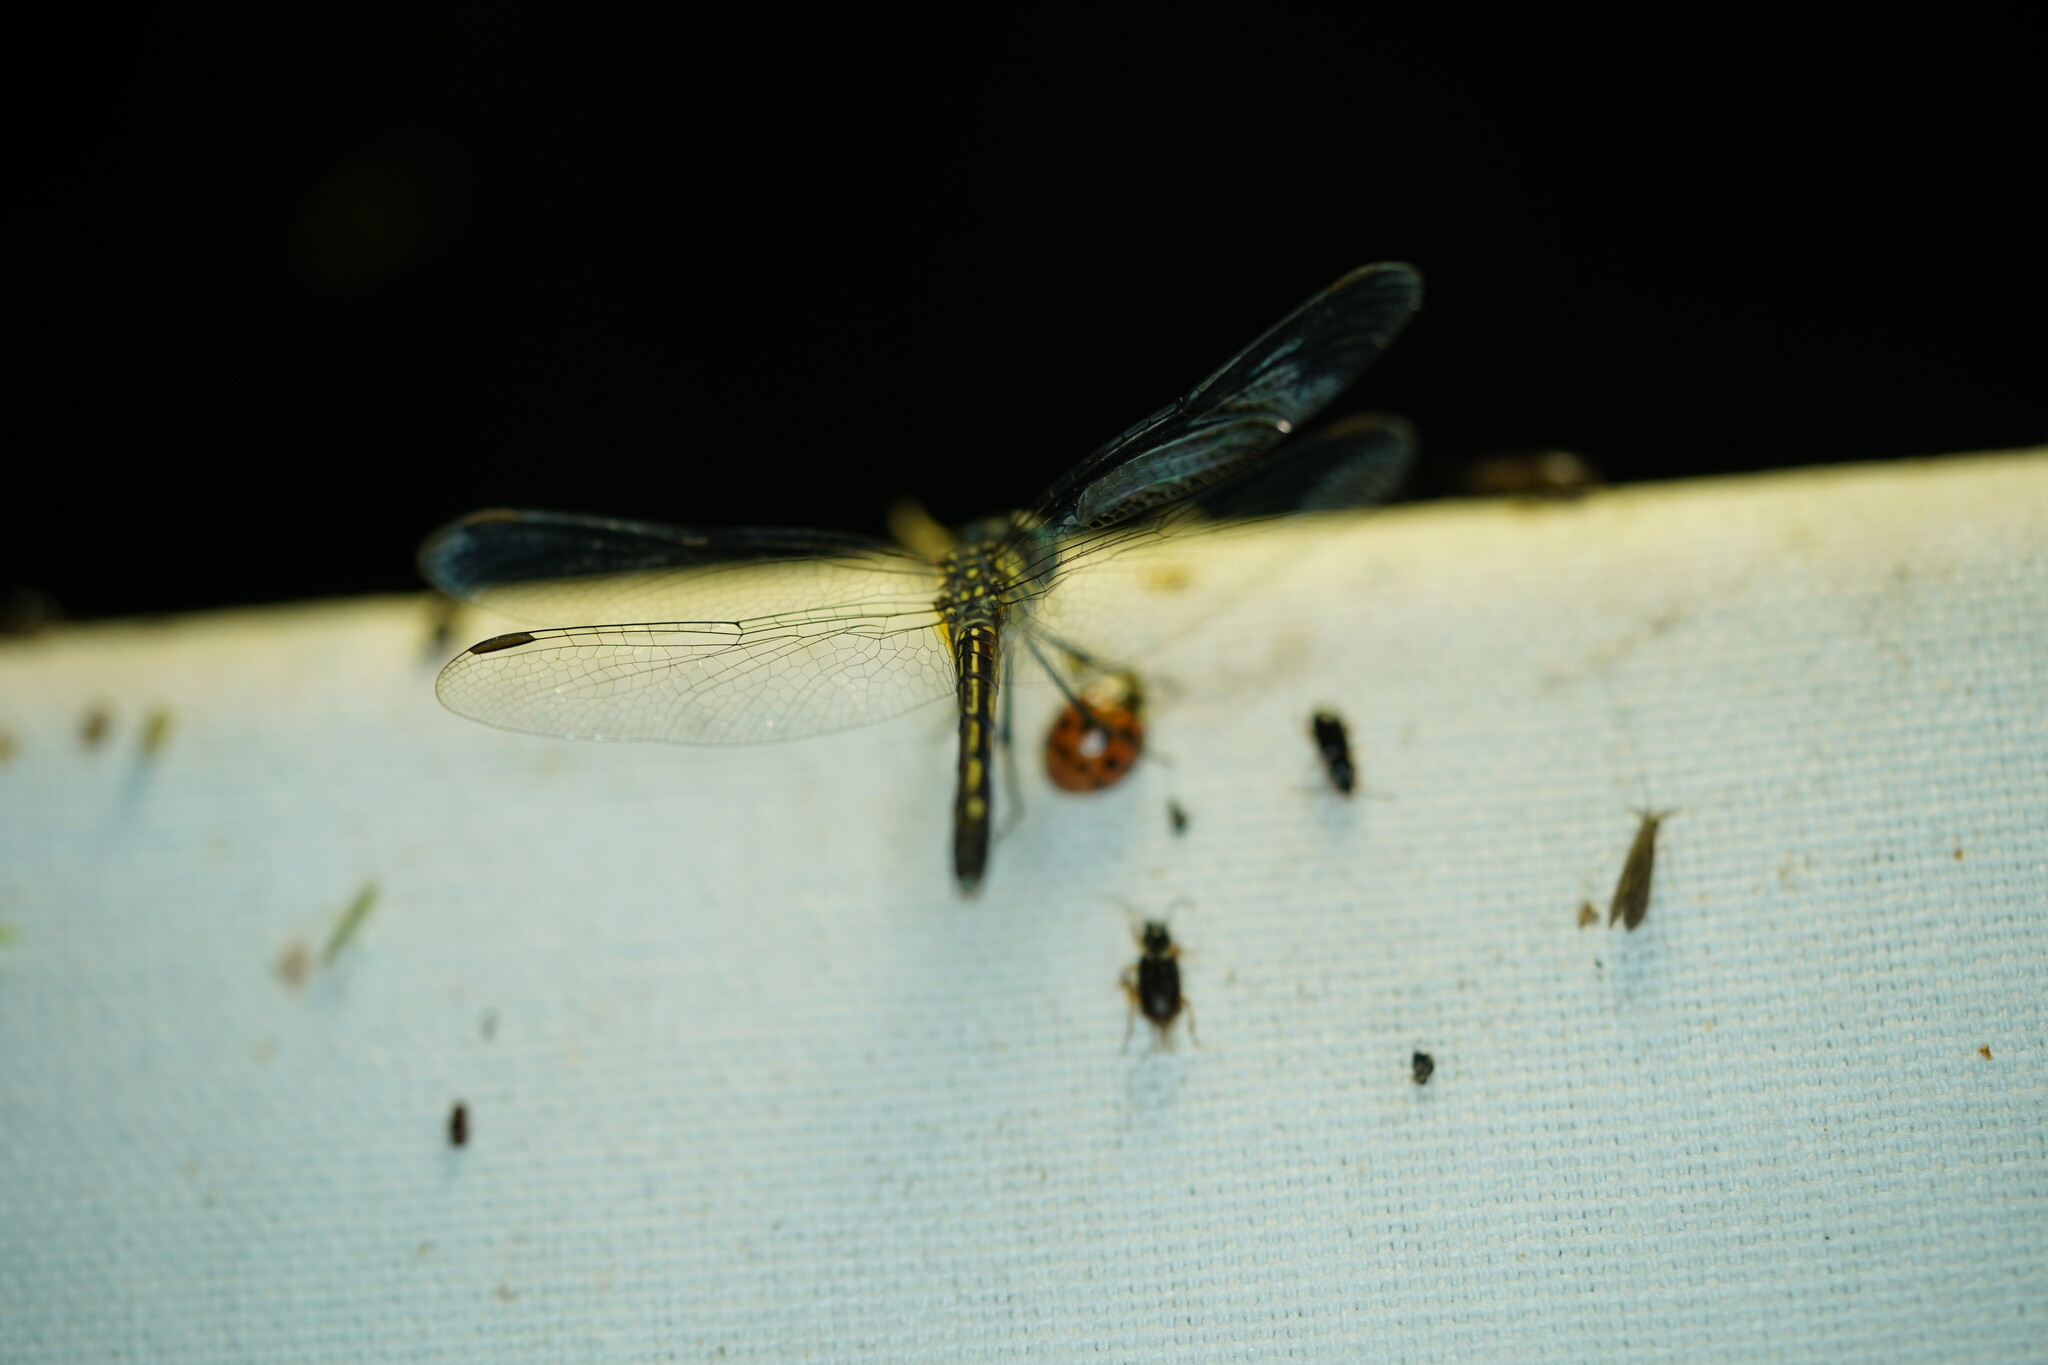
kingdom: Animalia
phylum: Arthropoda
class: Insecta
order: Odonata
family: Libellulidae
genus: Pachydiplax
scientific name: Pachydiplax longipennis
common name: Blue dasher
